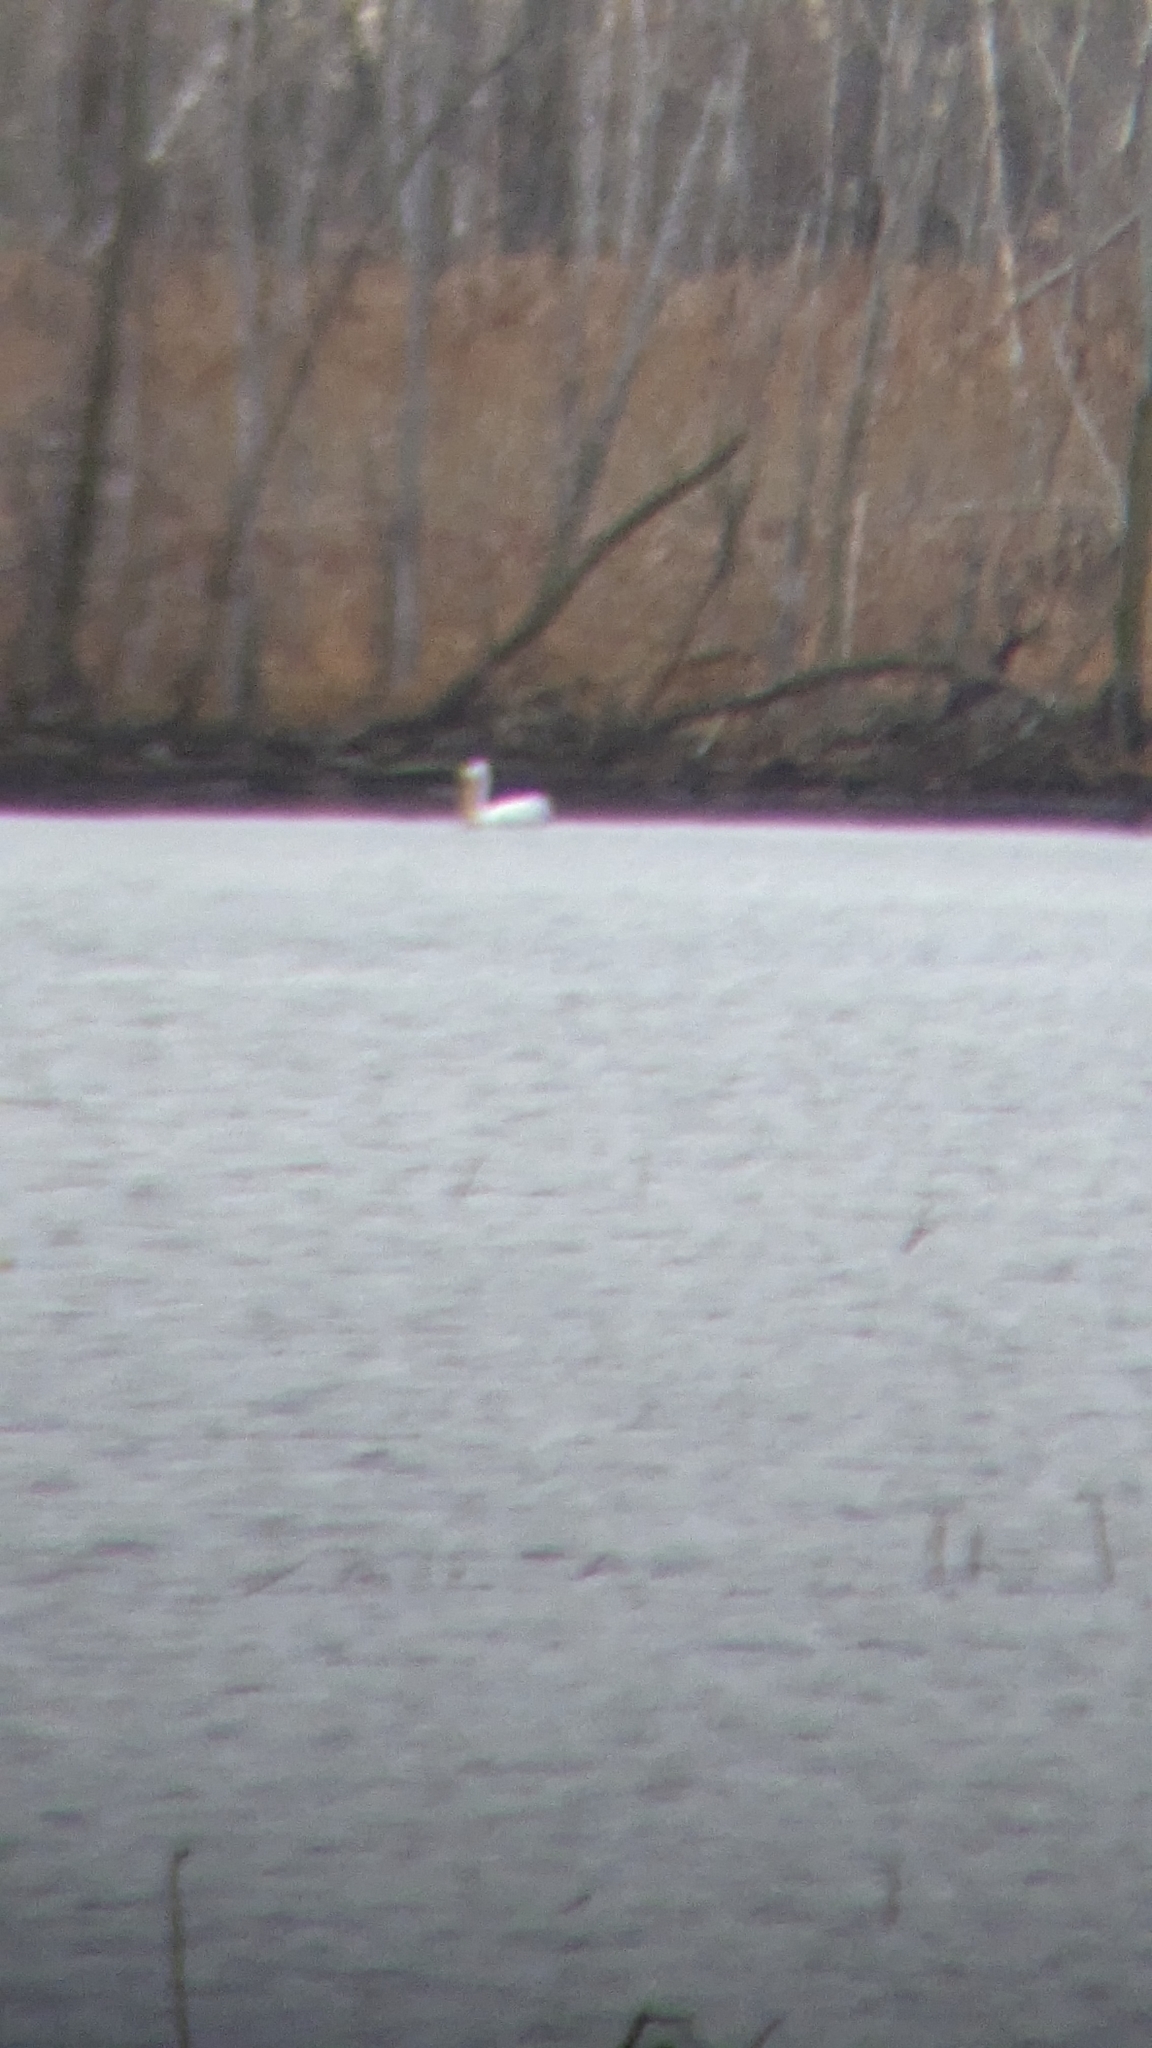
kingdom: Animalia
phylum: Chordata
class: Aves
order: Pelecaniformes
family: Pelecanidae
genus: Pelecanus
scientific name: Pelecanus erythrorhynchos
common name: American white pelican
